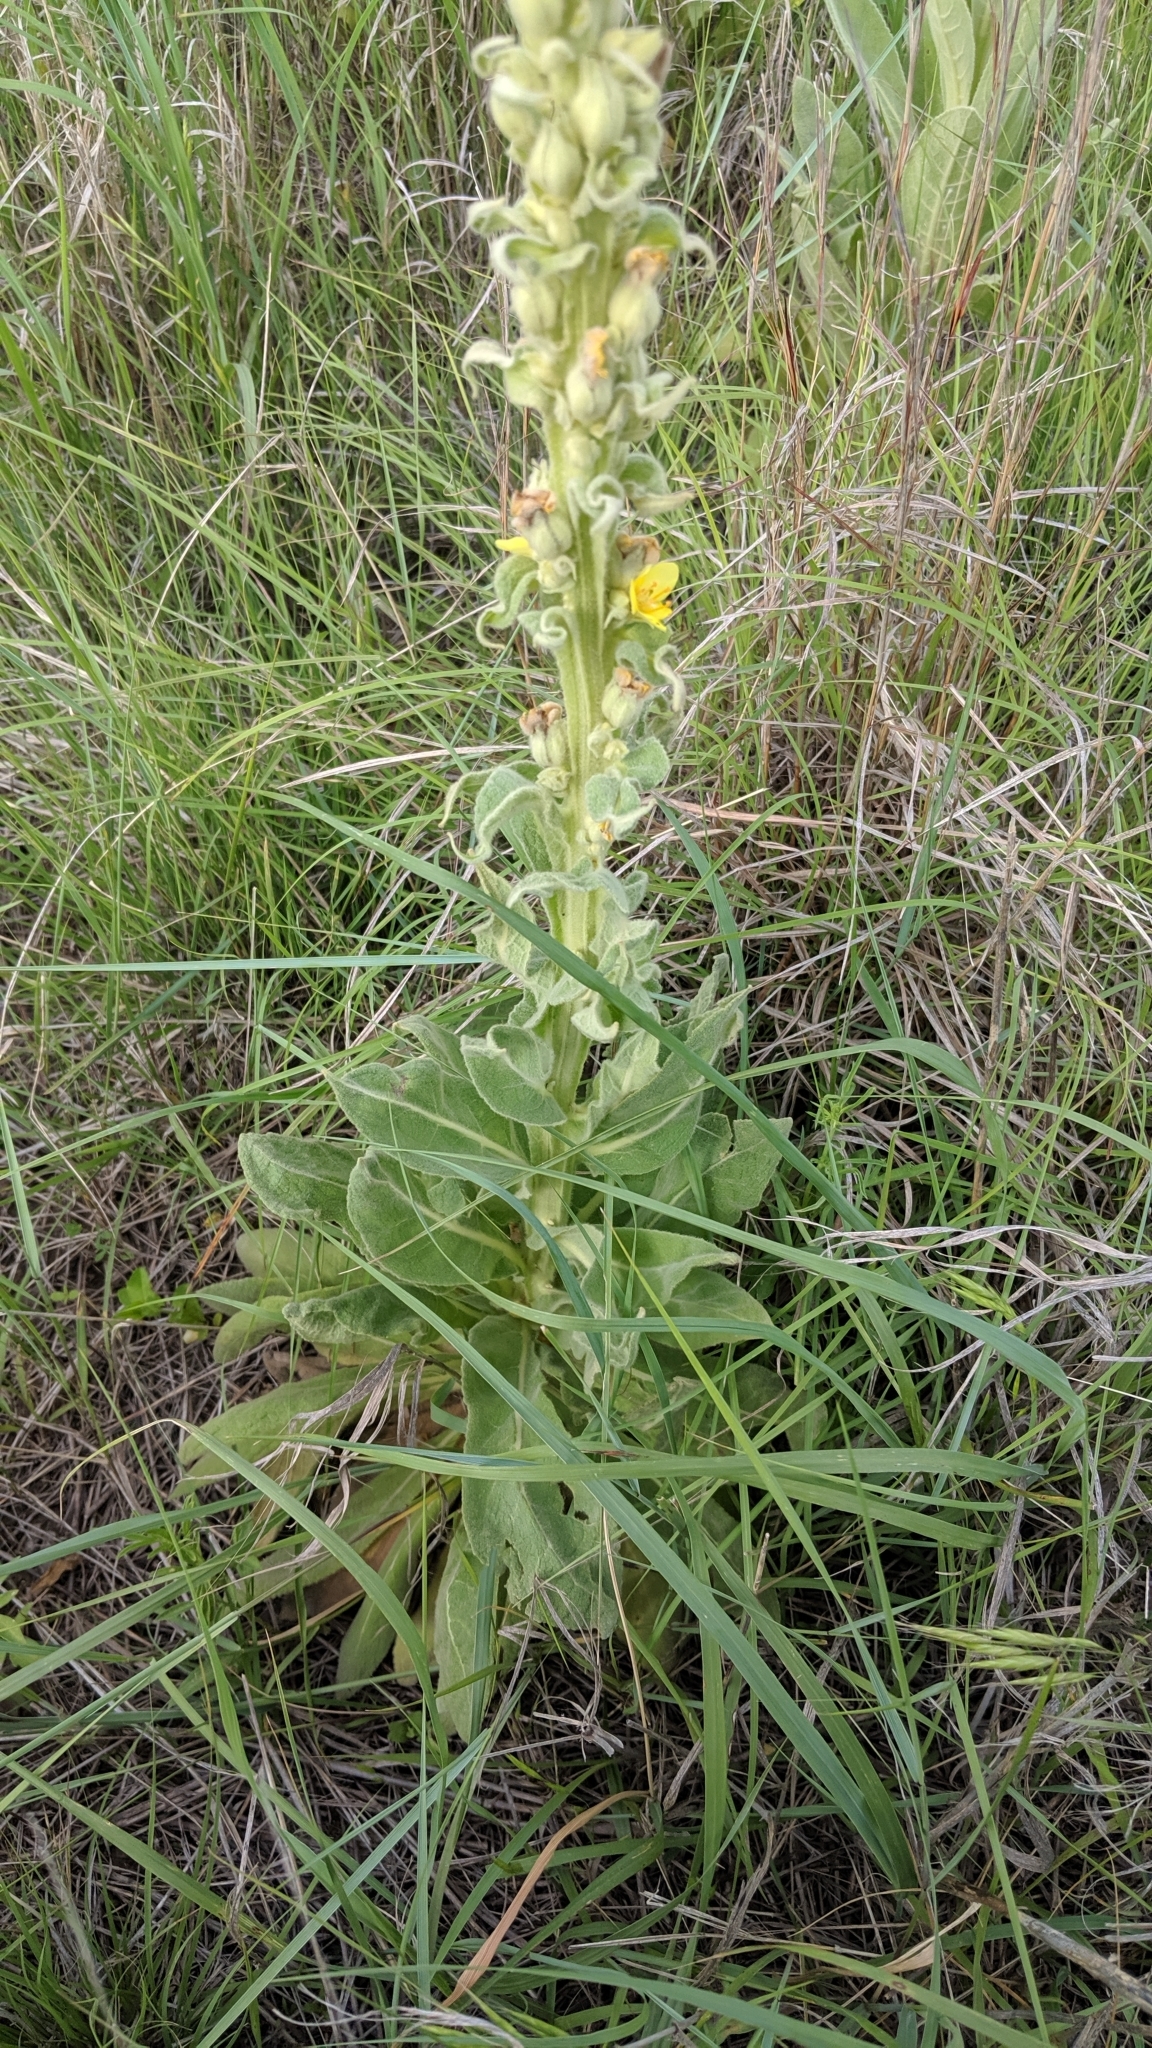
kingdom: Plantae
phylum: Tracheophyta
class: Magnoliopsida
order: Lamiales
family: Scrophulariaceae
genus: Verbascum
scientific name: Verbascum thapsus
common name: Common mullein
